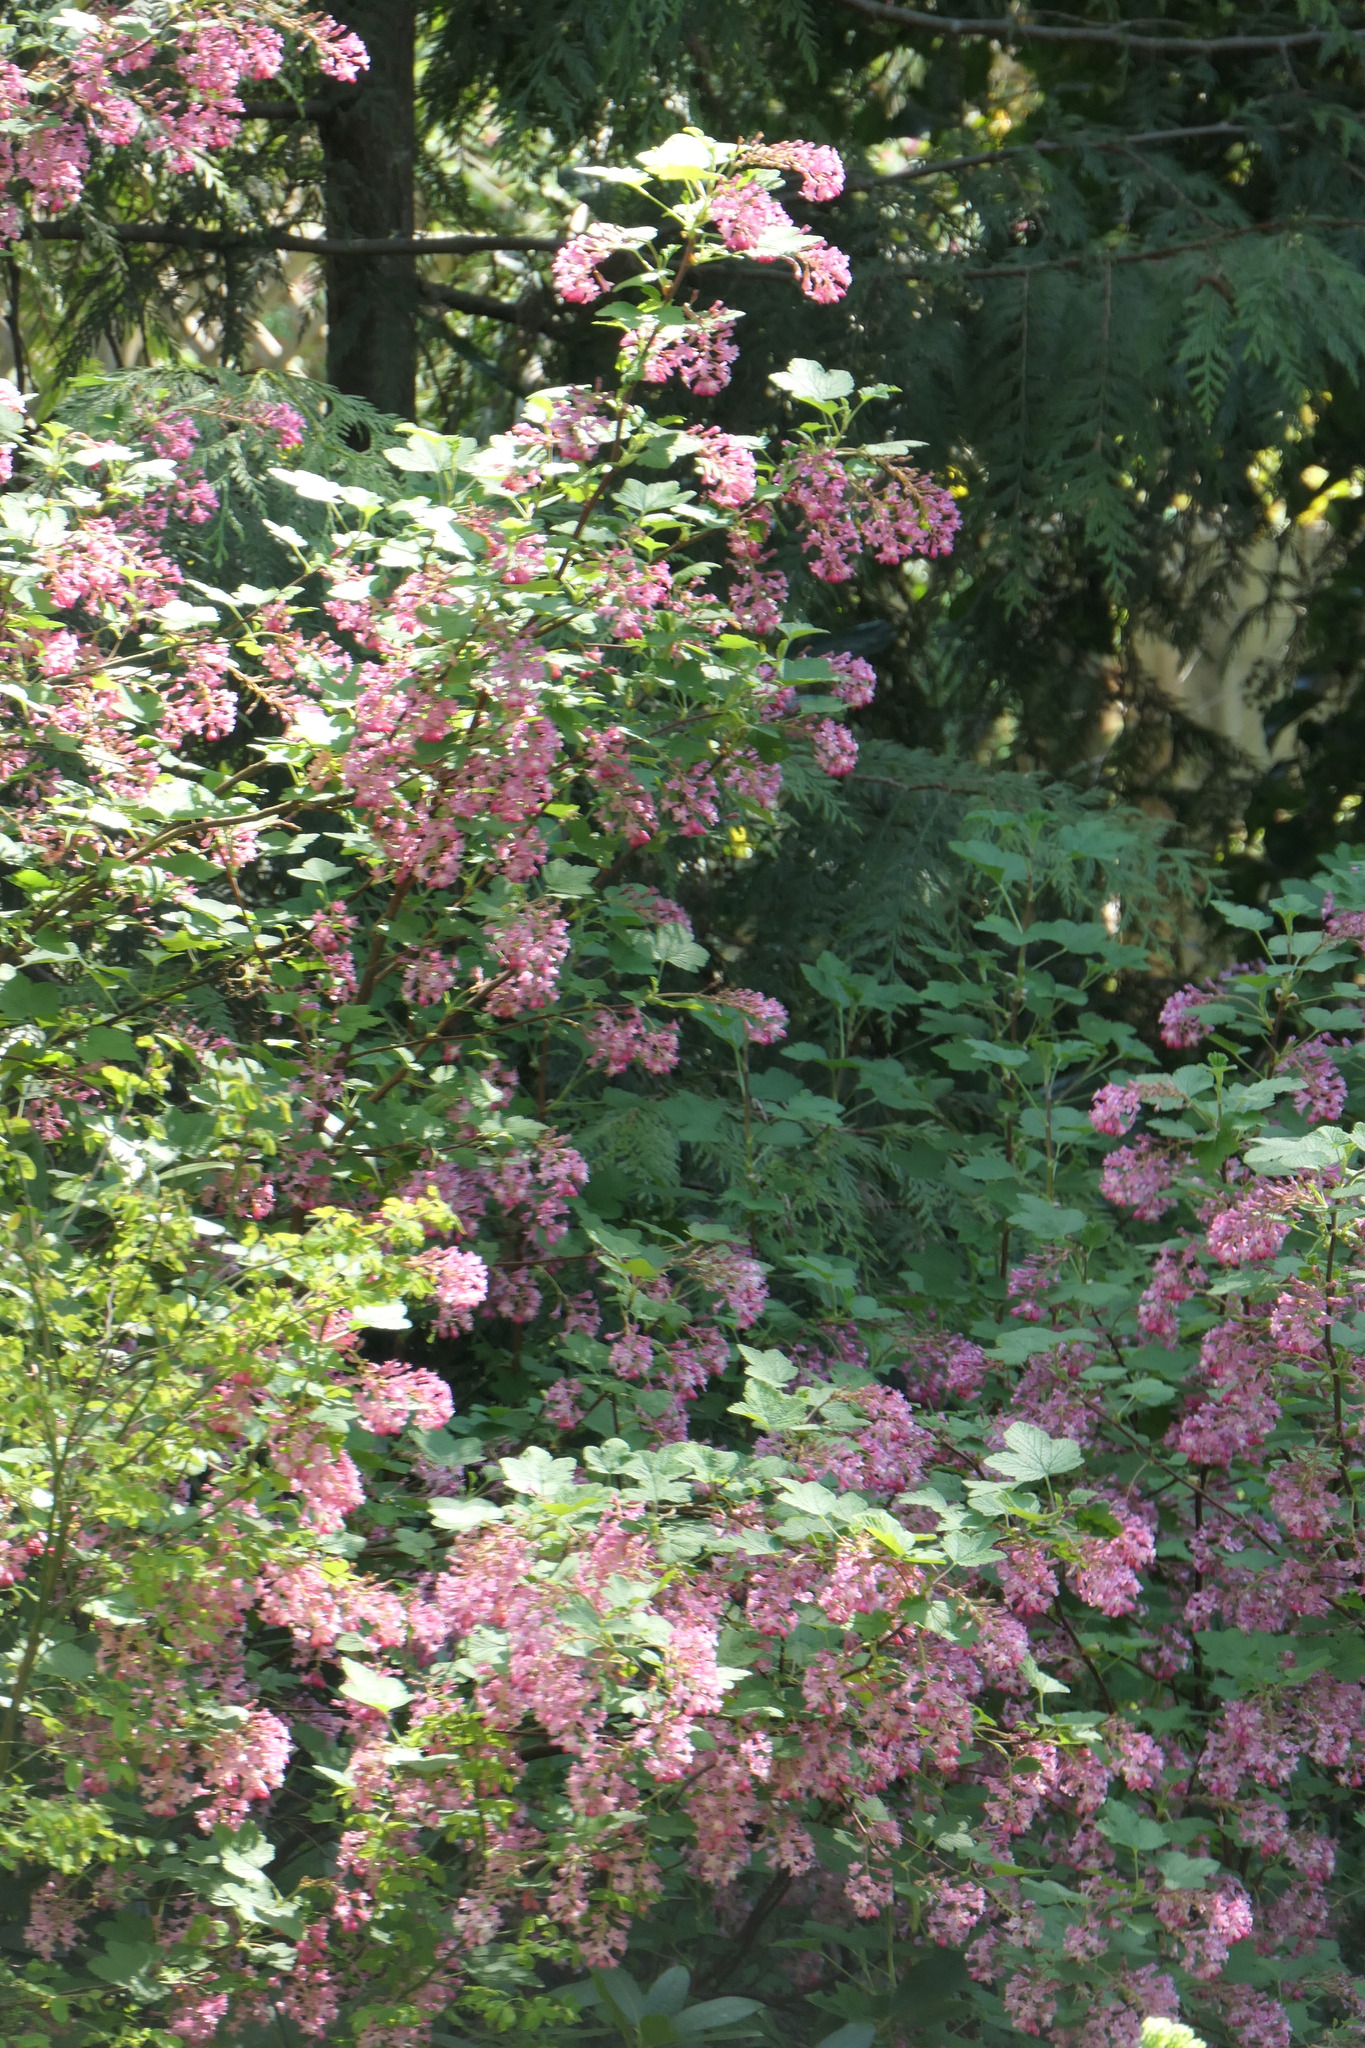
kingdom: Plantae
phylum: Tracheophyta
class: Magnoliopsida
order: Saxifragales
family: Grossulariaceae
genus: Ribes
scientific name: Ribes sanguineum
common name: Flowering currant
